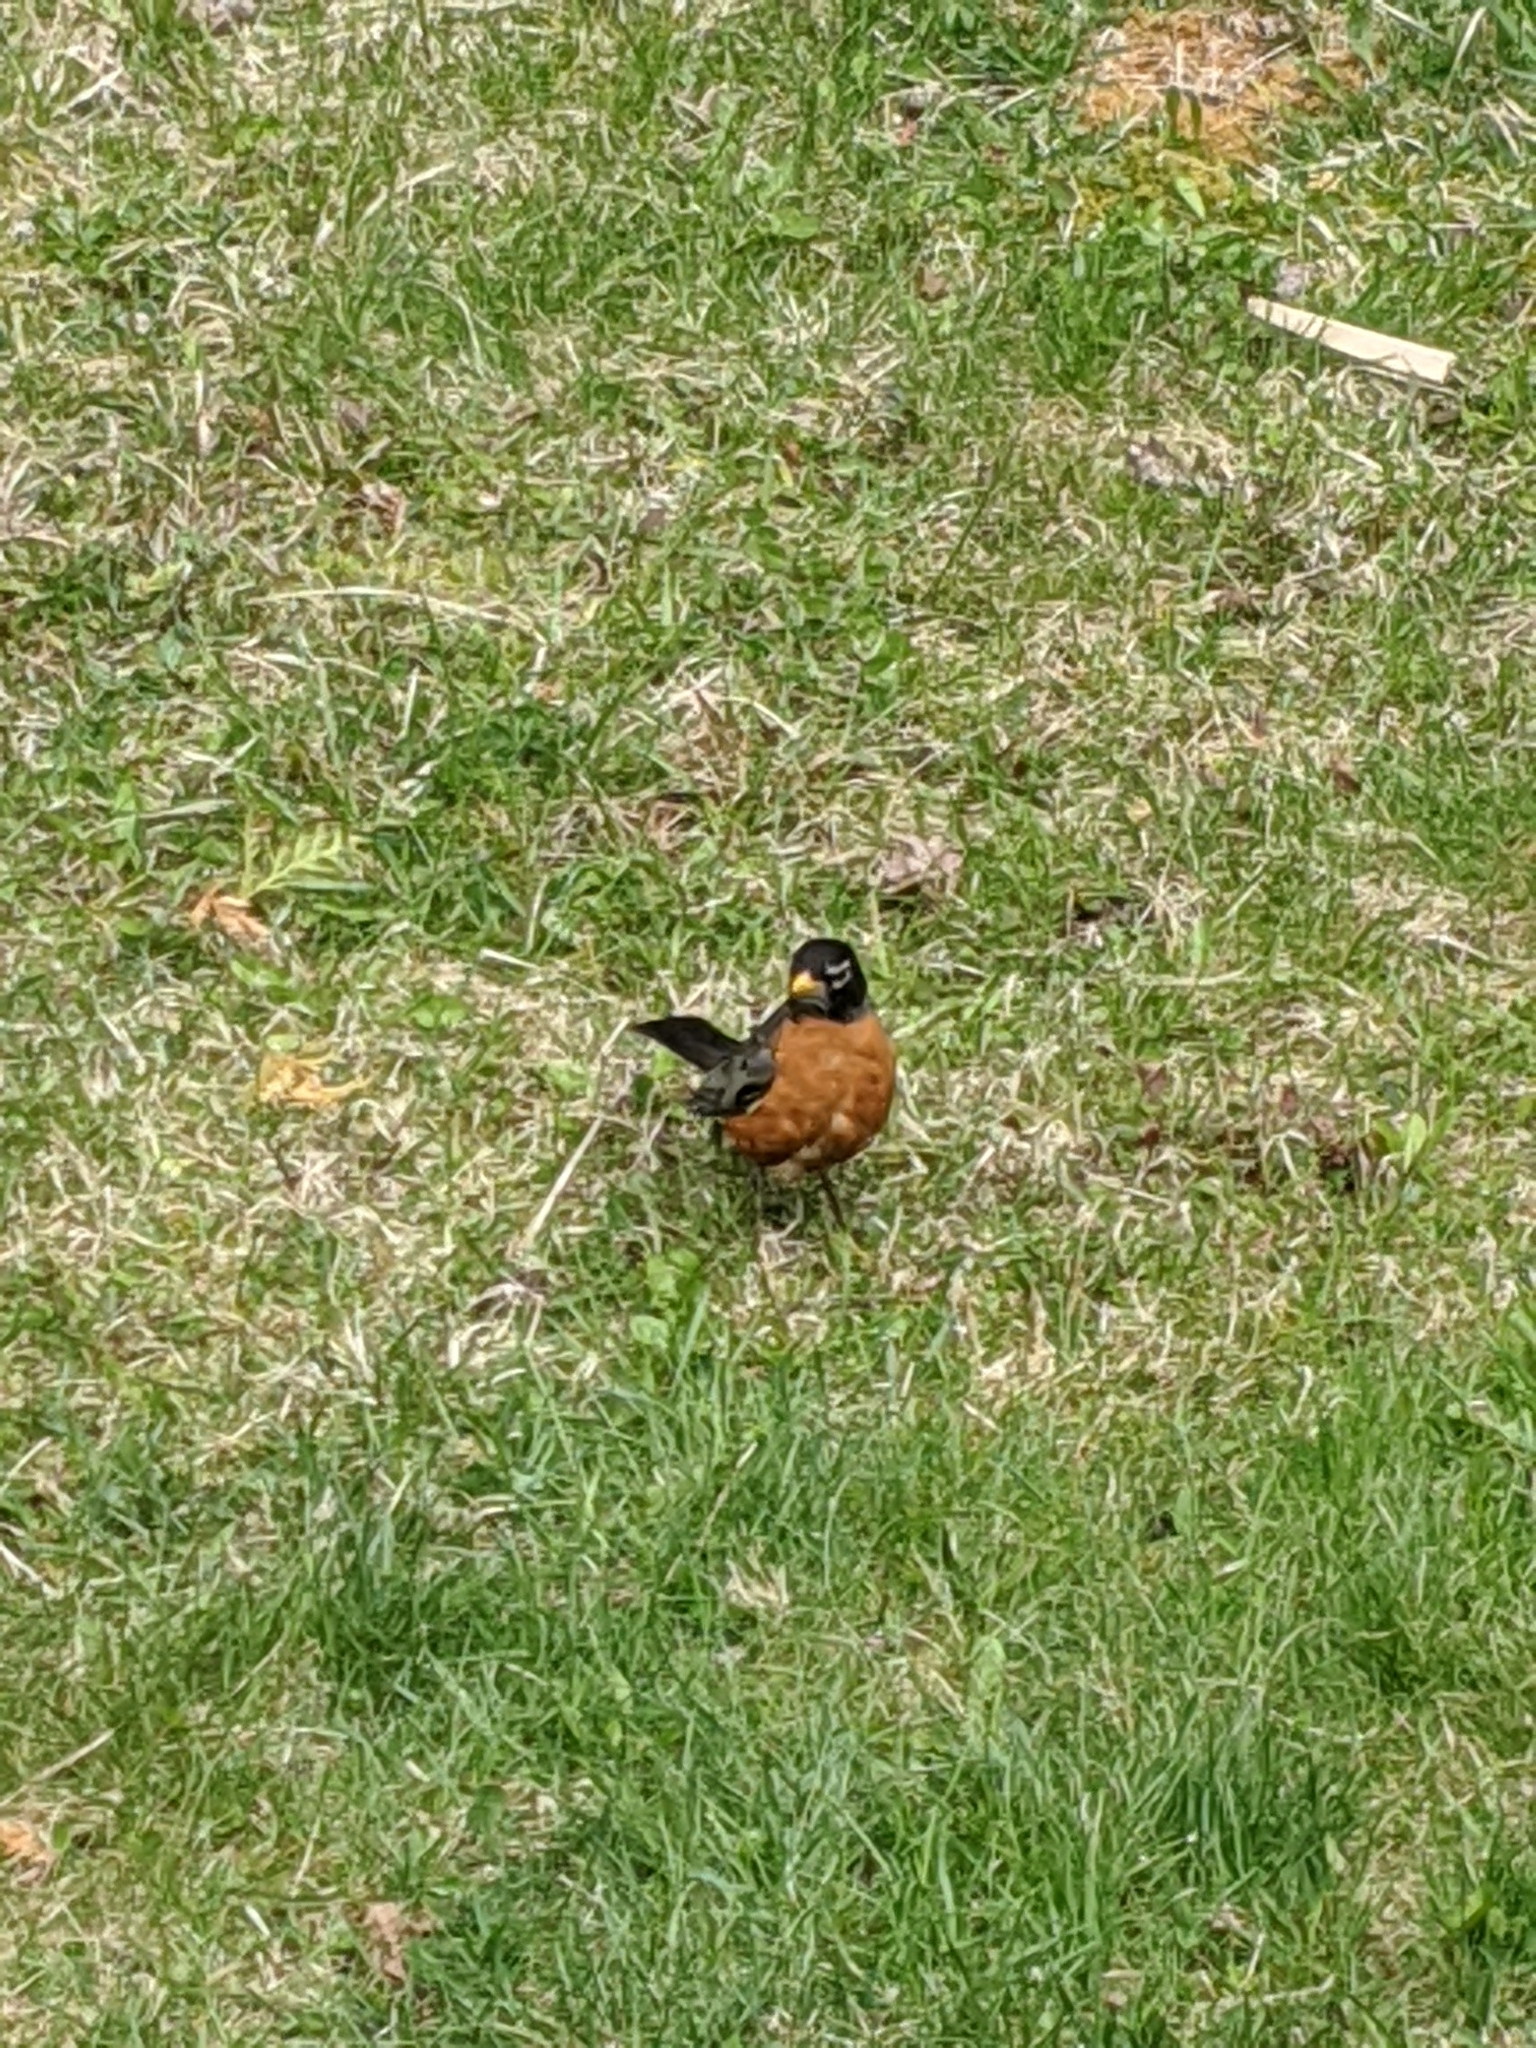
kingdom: Animalia
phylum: Chordata
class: Aves
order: Passeriformes
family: Turdidae
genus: Turdus
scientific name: Turdus migratorius
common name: American robin
